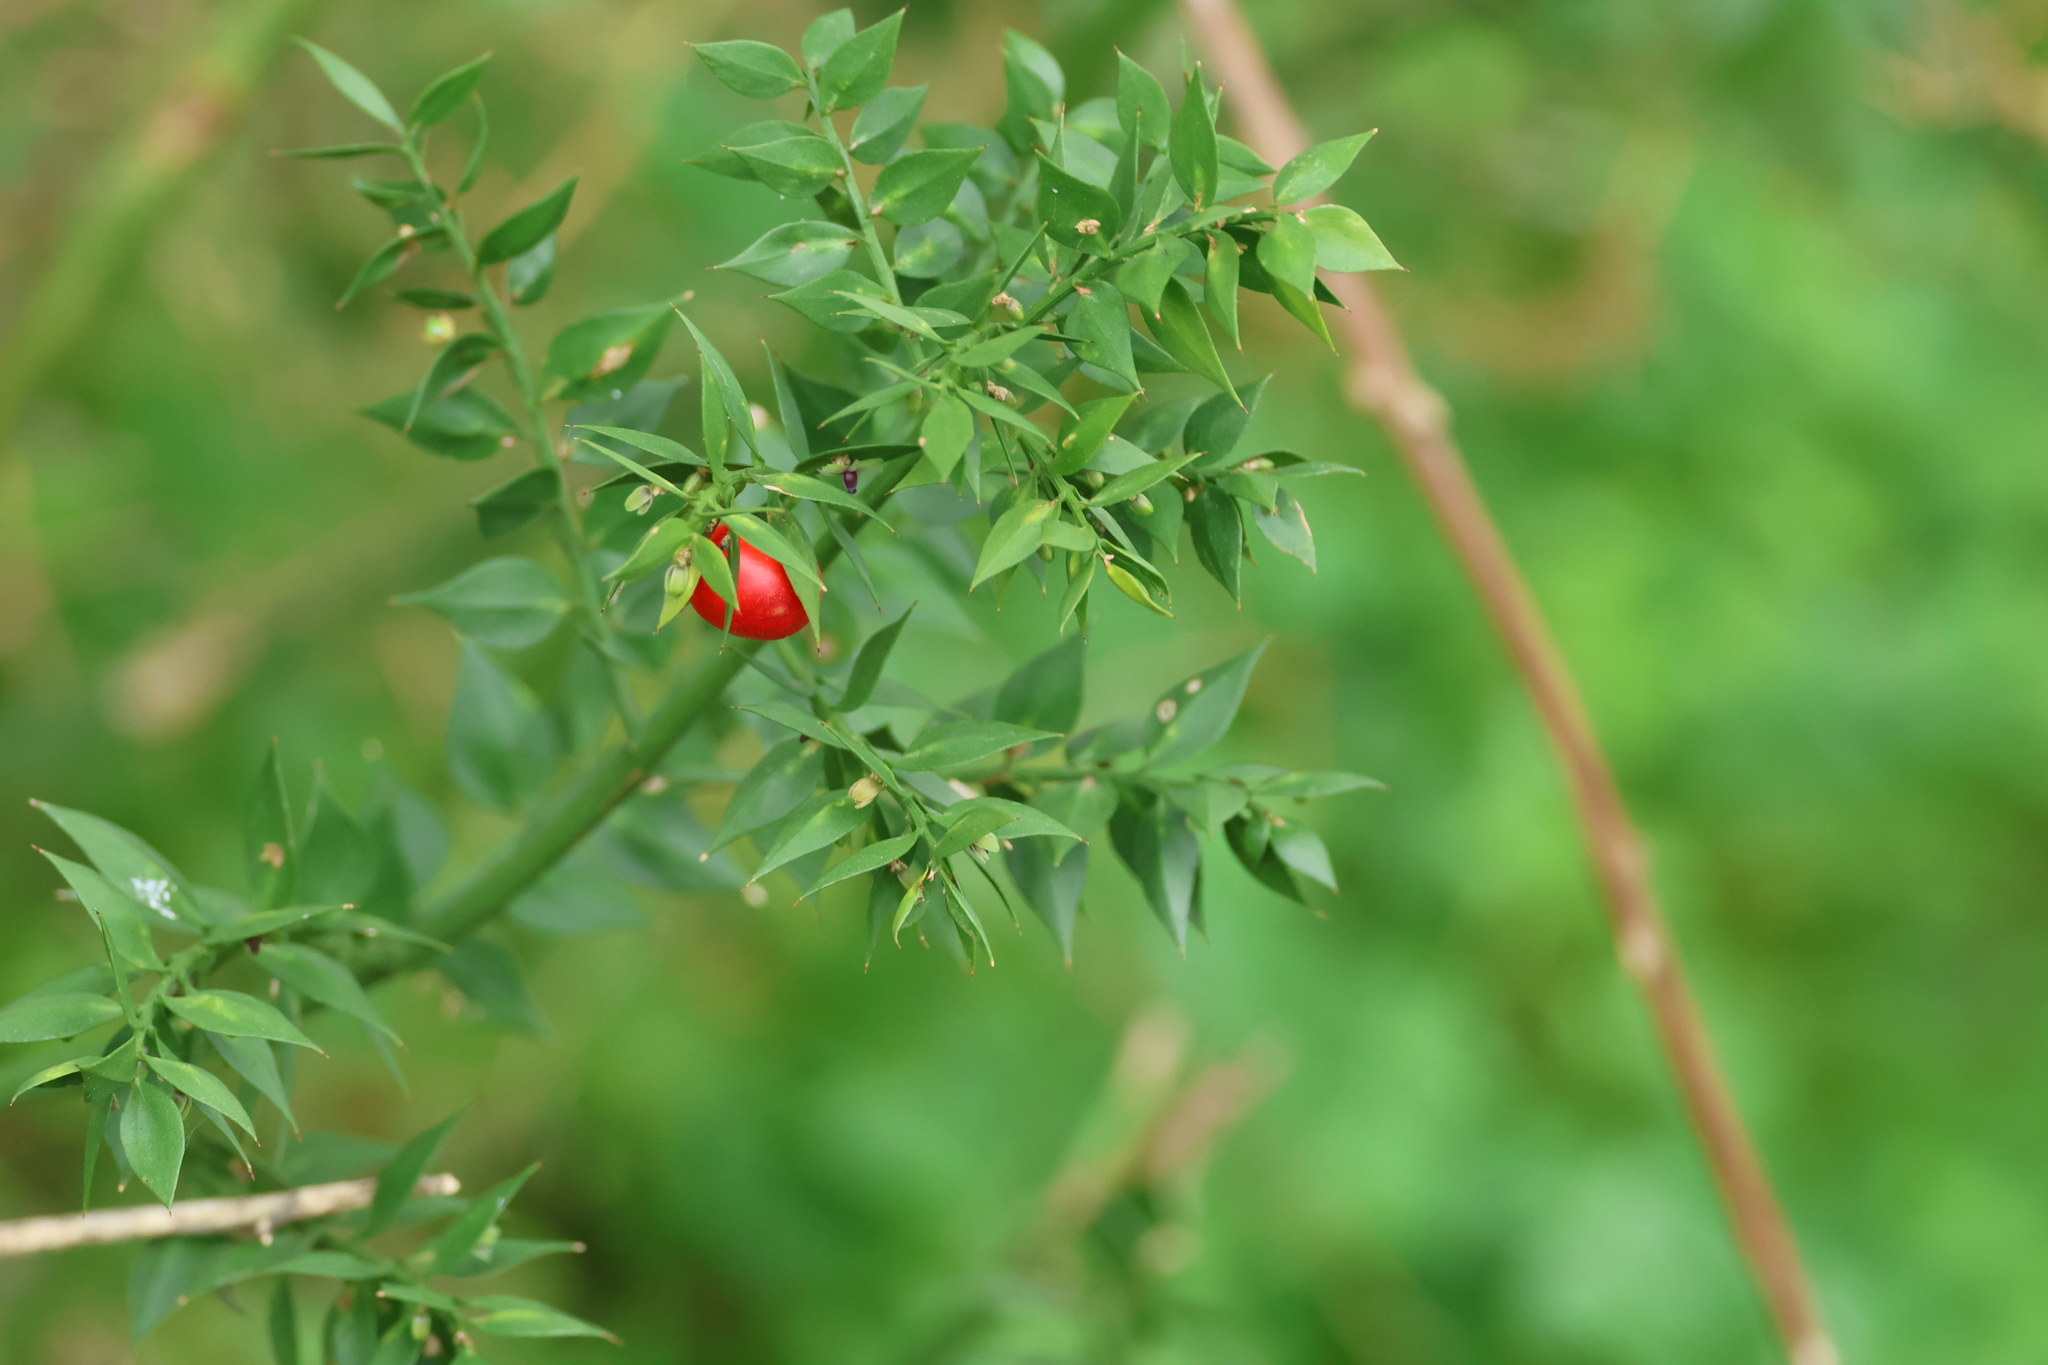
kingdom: Plantae
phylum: Tracheophyta
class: Liliopsida
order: Asparagales
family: Asparagaceae
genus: Ruscus
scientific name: Ruscus aculeatus
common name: Butcher's-broom
